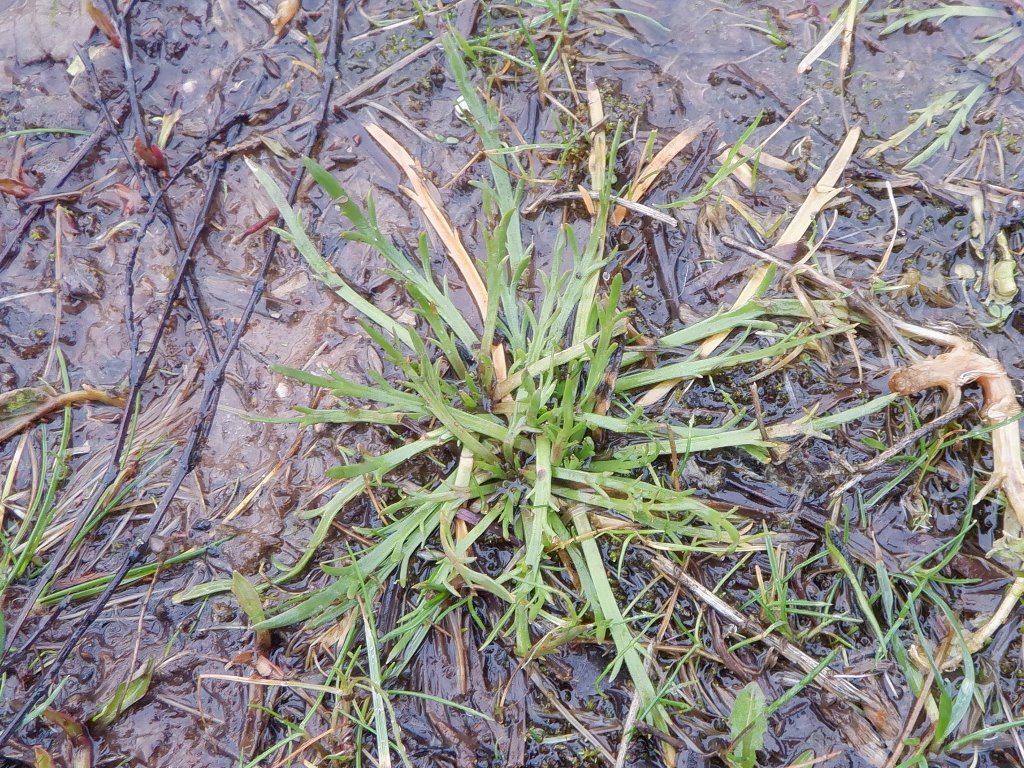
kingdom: Plantae
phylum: Tracheophyta
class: Magnoliopsida
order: Lamiales
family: Plantaginaceae
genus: Plantago
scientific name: Plantago coronopus
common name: Buck's-horn plantain
